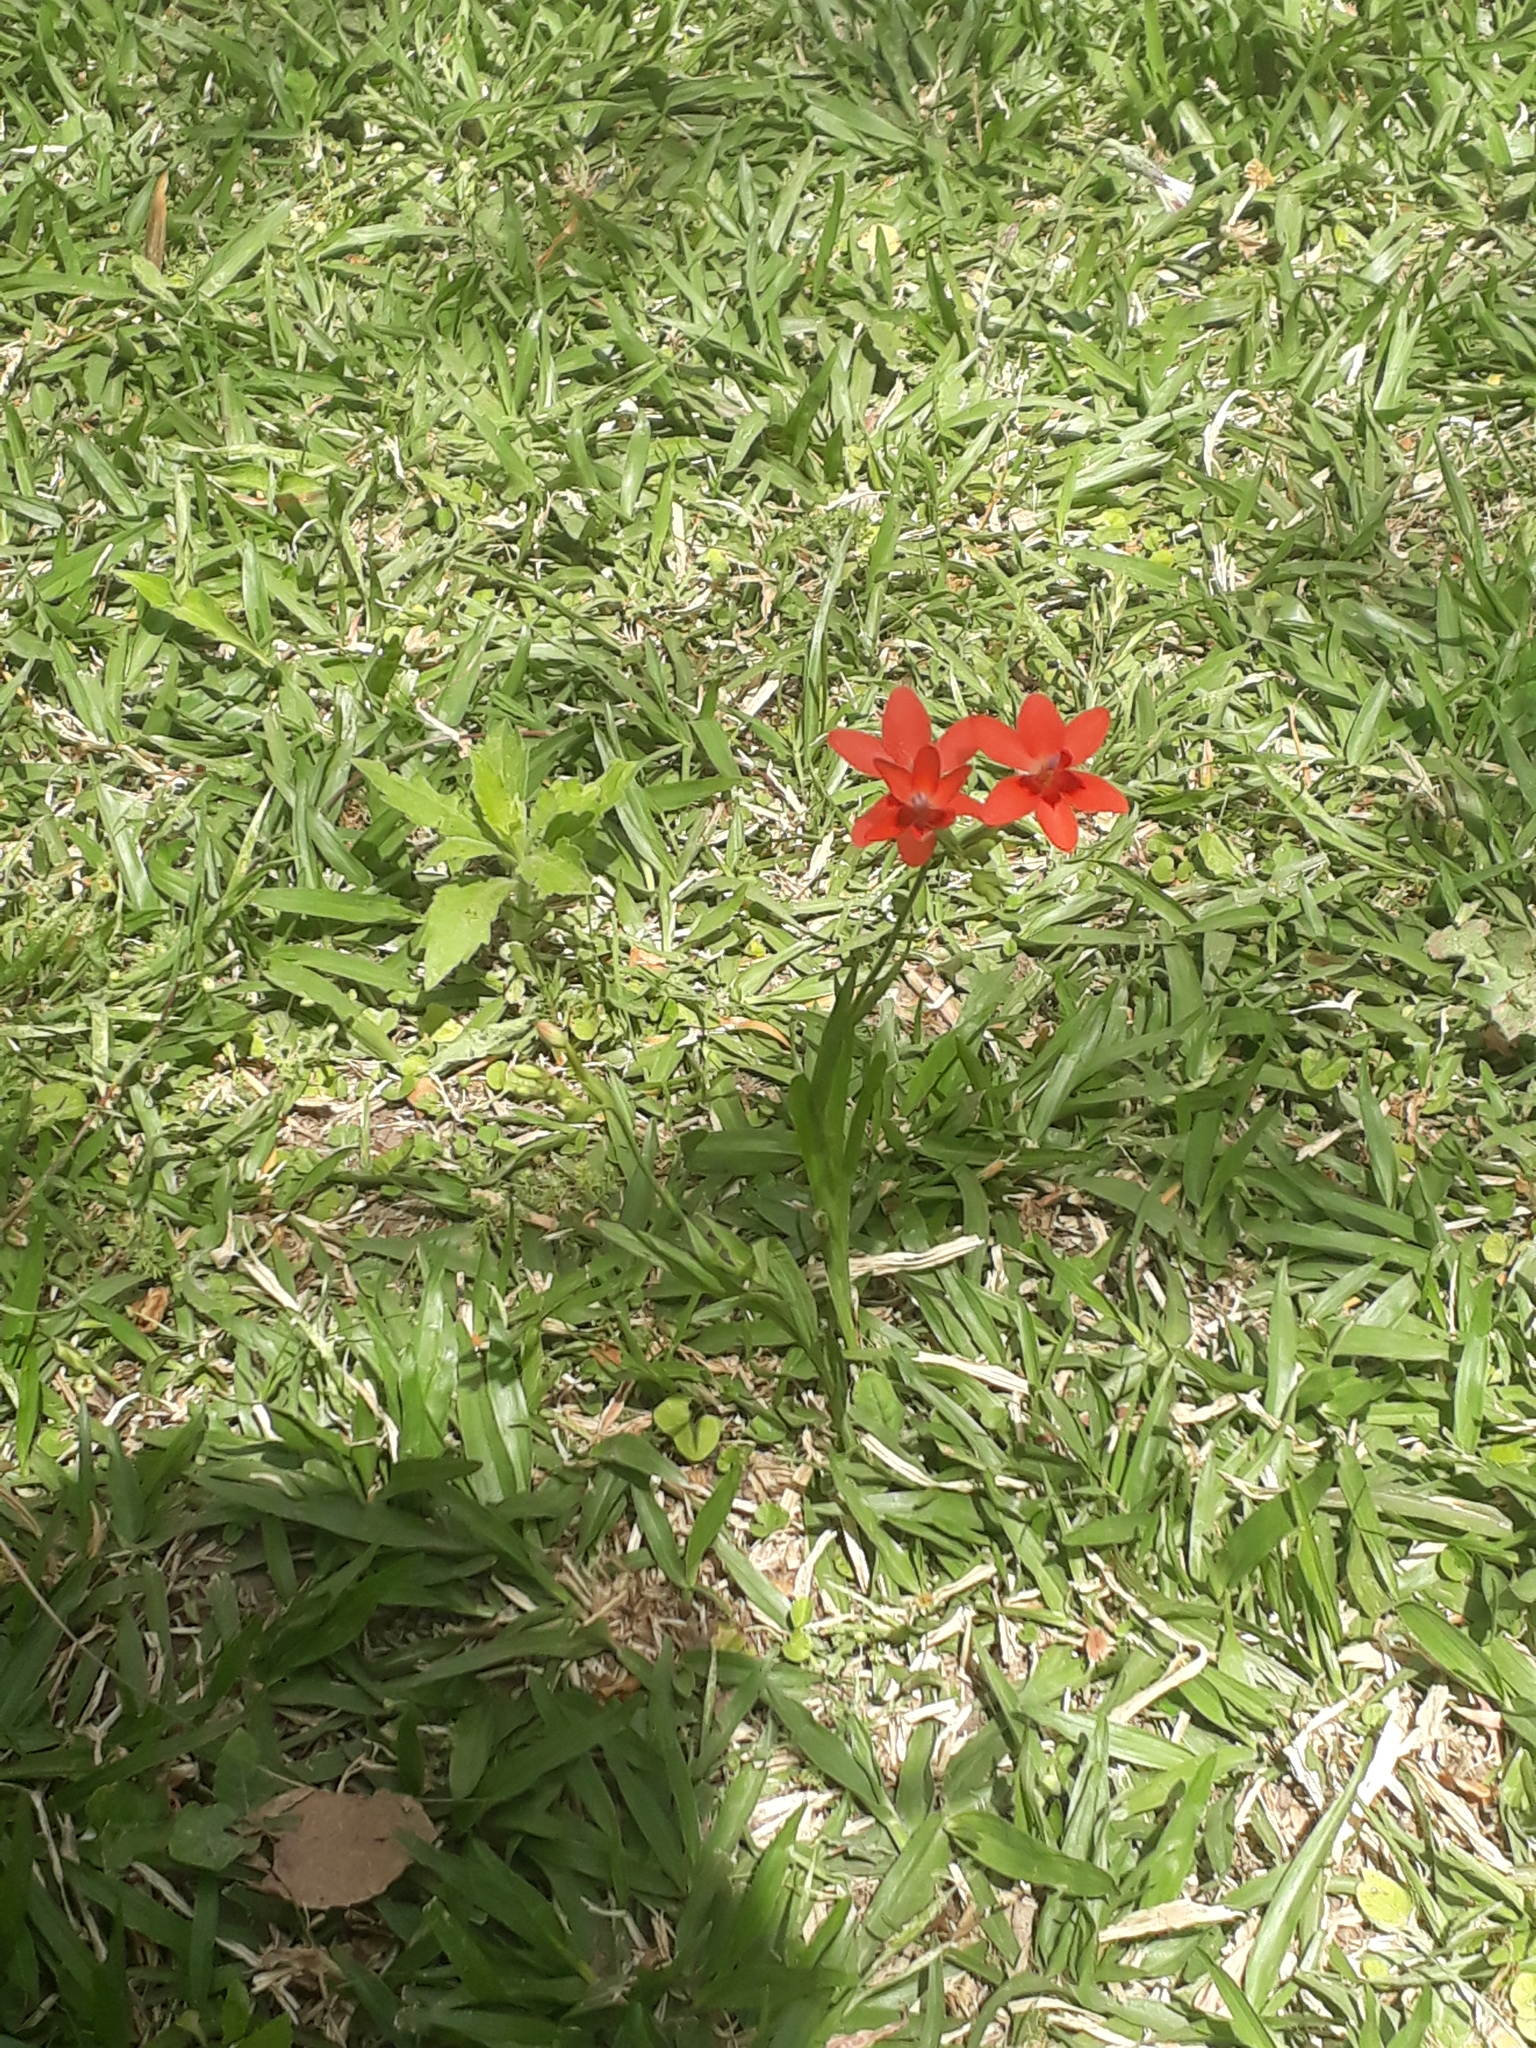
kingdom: Plantae
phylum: Tracheophyta
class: Liliopsida
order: Asparagales
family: Iridaceae
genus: Freesia
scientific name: Freesia laxa
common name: False freesia
